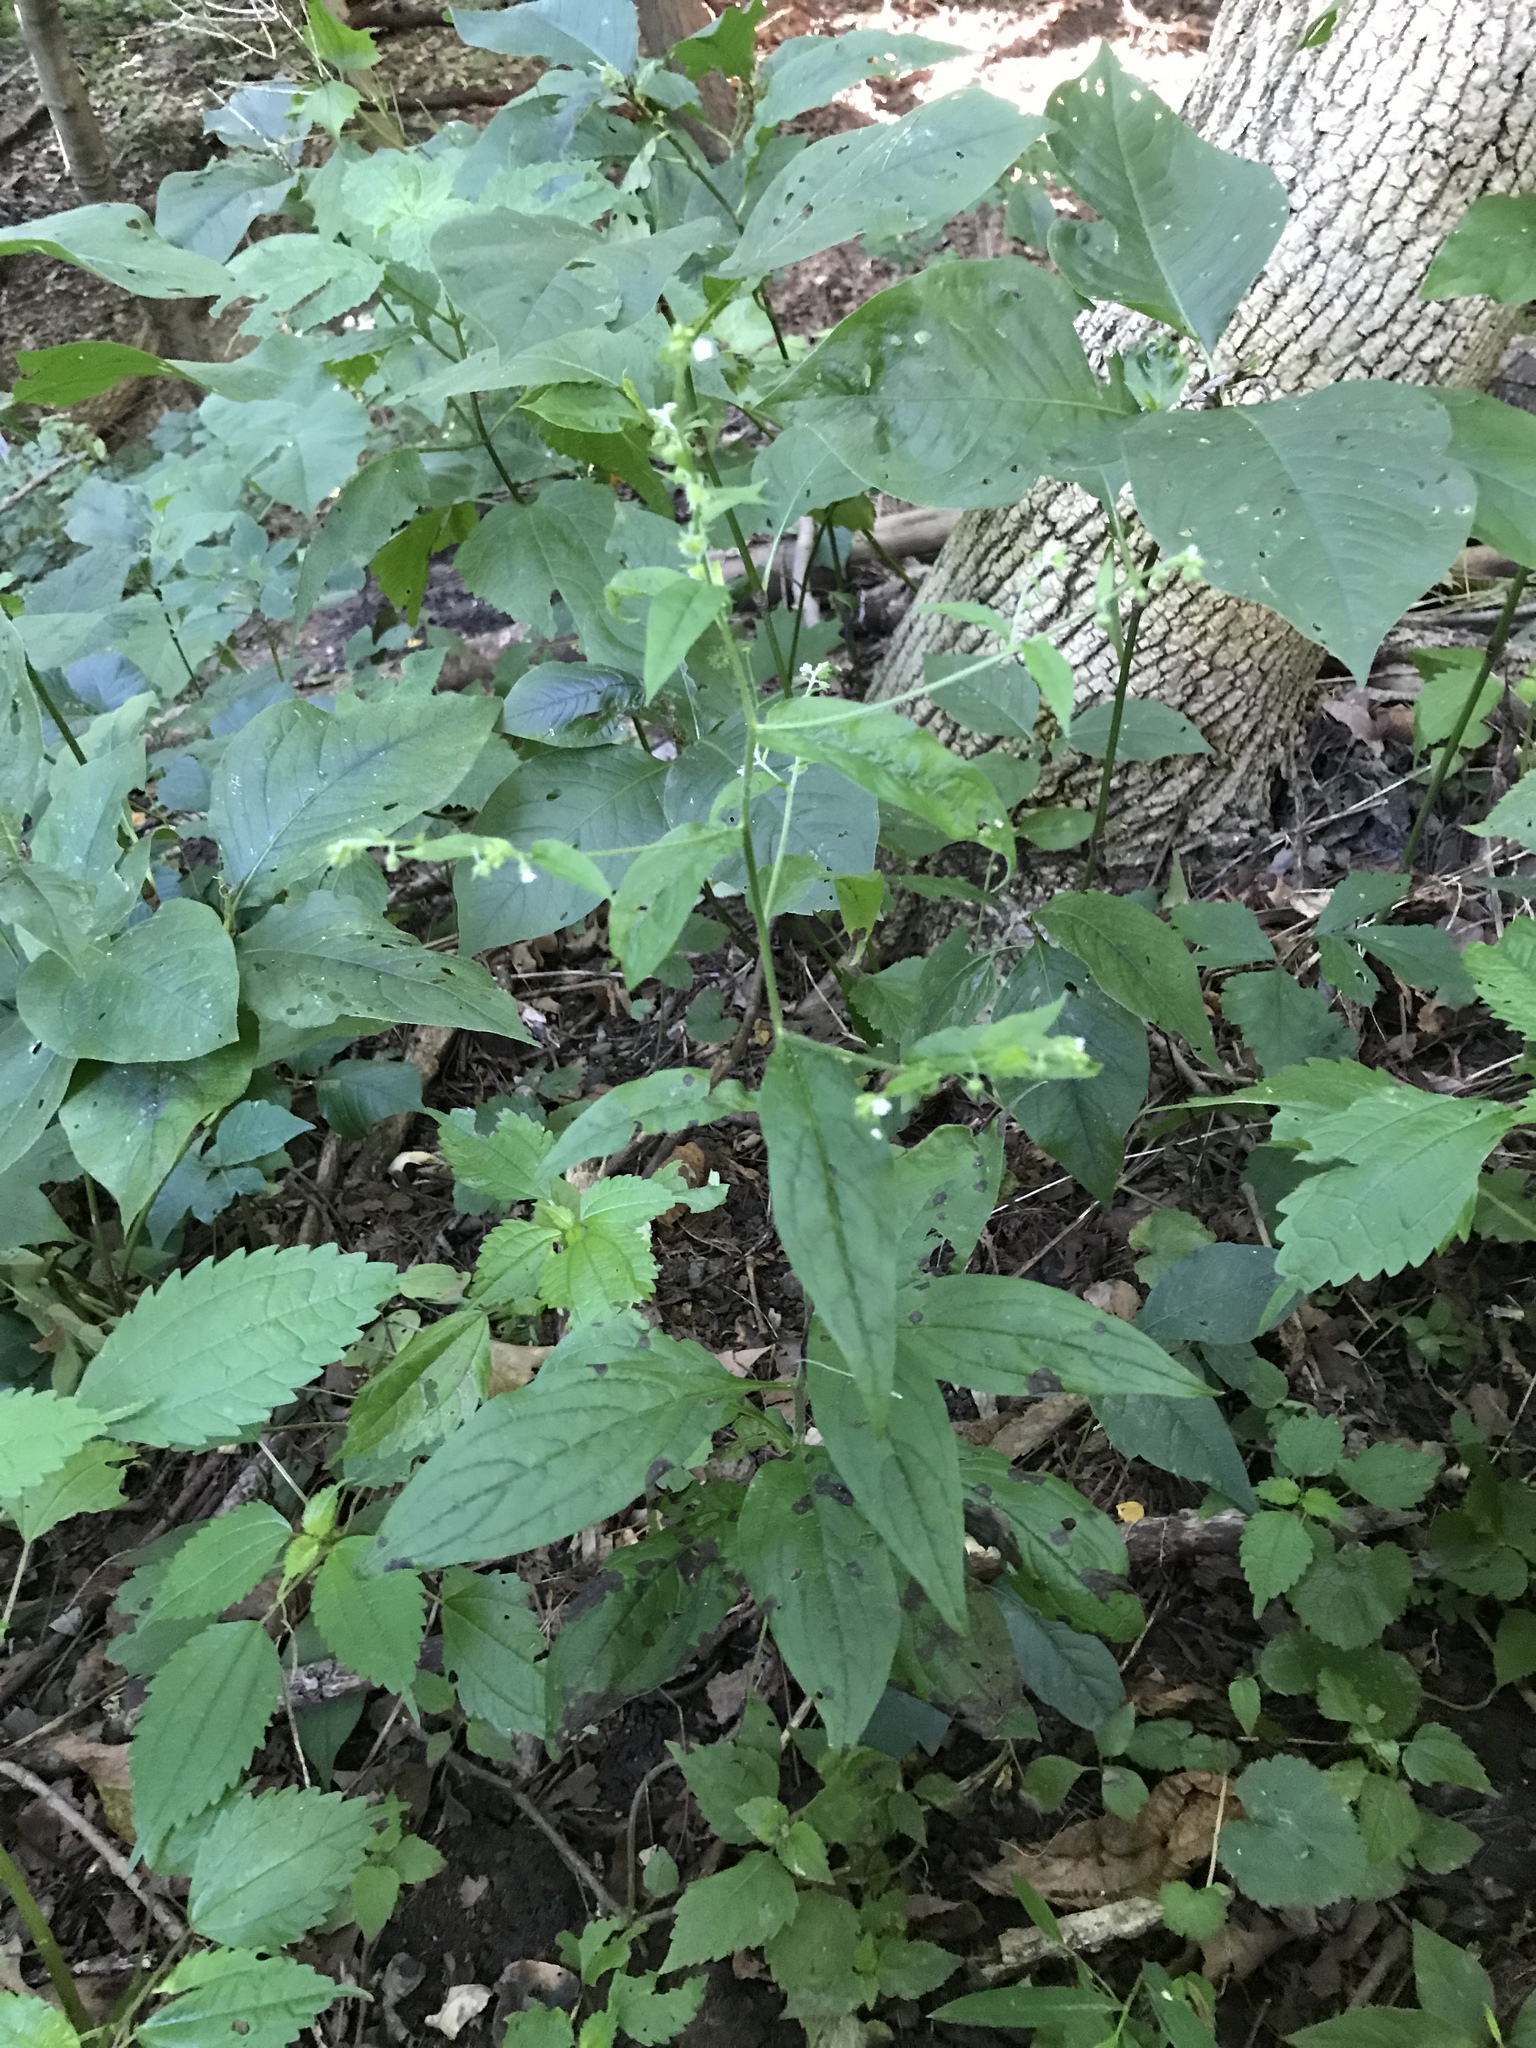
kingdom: Plantae
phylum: Tracheophyta
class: Magnoliopsida
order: Boraginales
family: Boraginaceae
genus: Hackelia
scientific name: Hackelia virginiana
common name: Beggar's-lice
